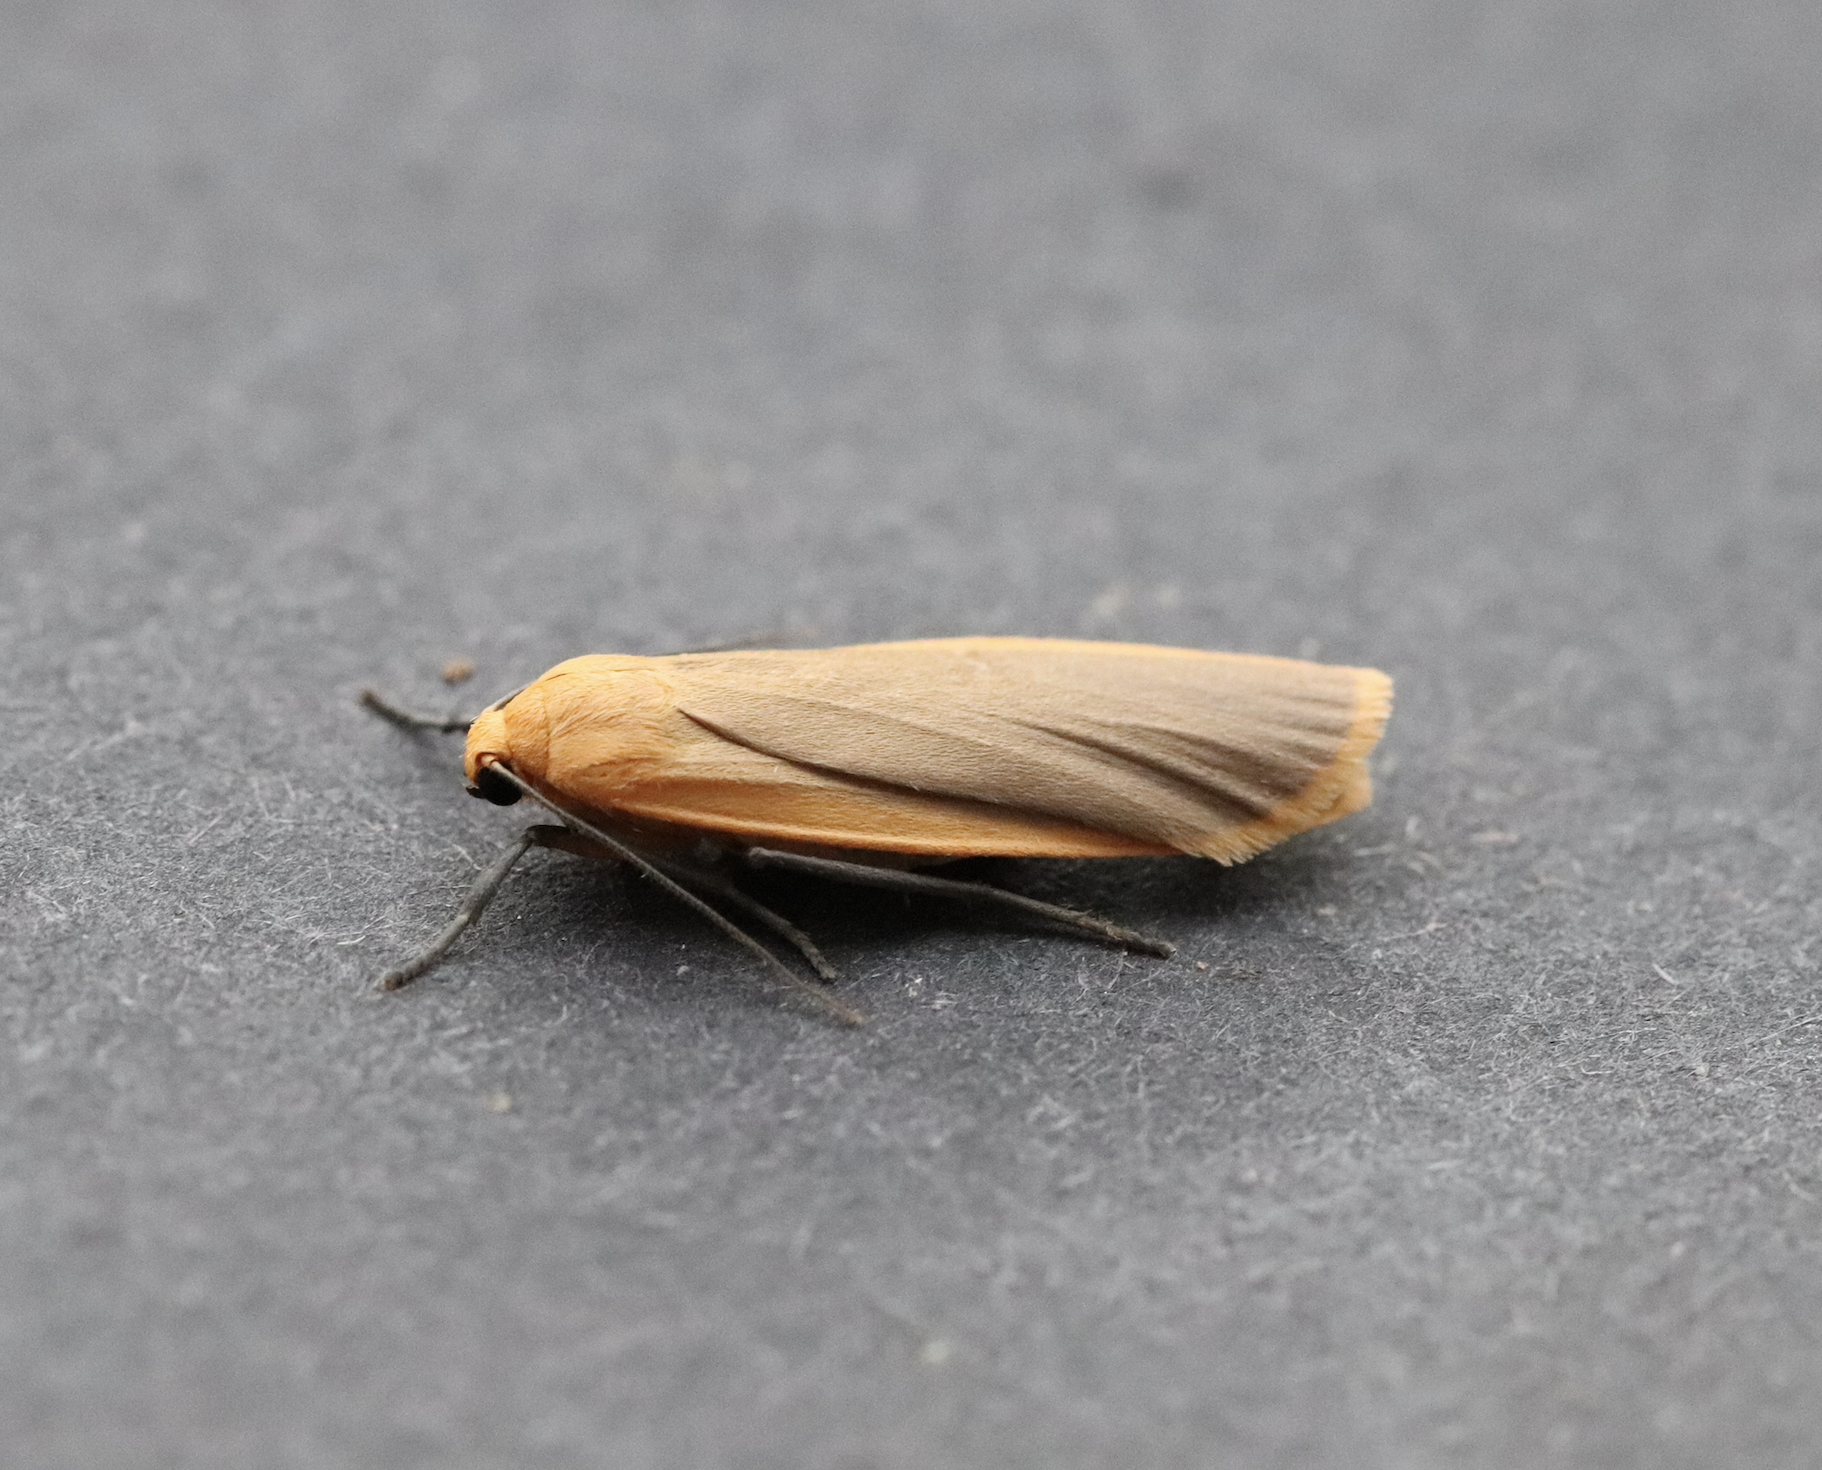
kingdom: Animalia
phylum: Arthropoda
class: Insecta
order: Lepidoptera
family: Erebidae
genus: Katha
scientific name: Katha depressa
